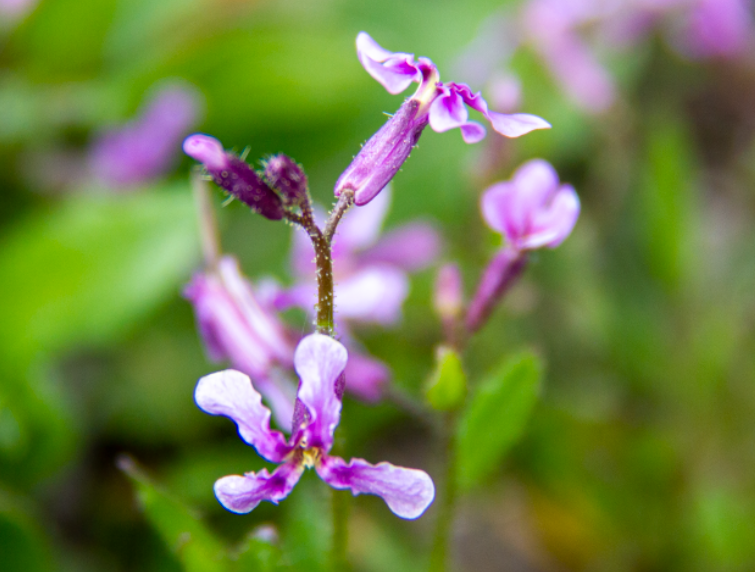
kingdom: Plantae
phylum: Tracheophyta
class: Magnoliopsida
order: Brassicales
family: Brassicaceae
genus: Chorispora
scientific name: Chorispora tenella
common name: Crossflower
